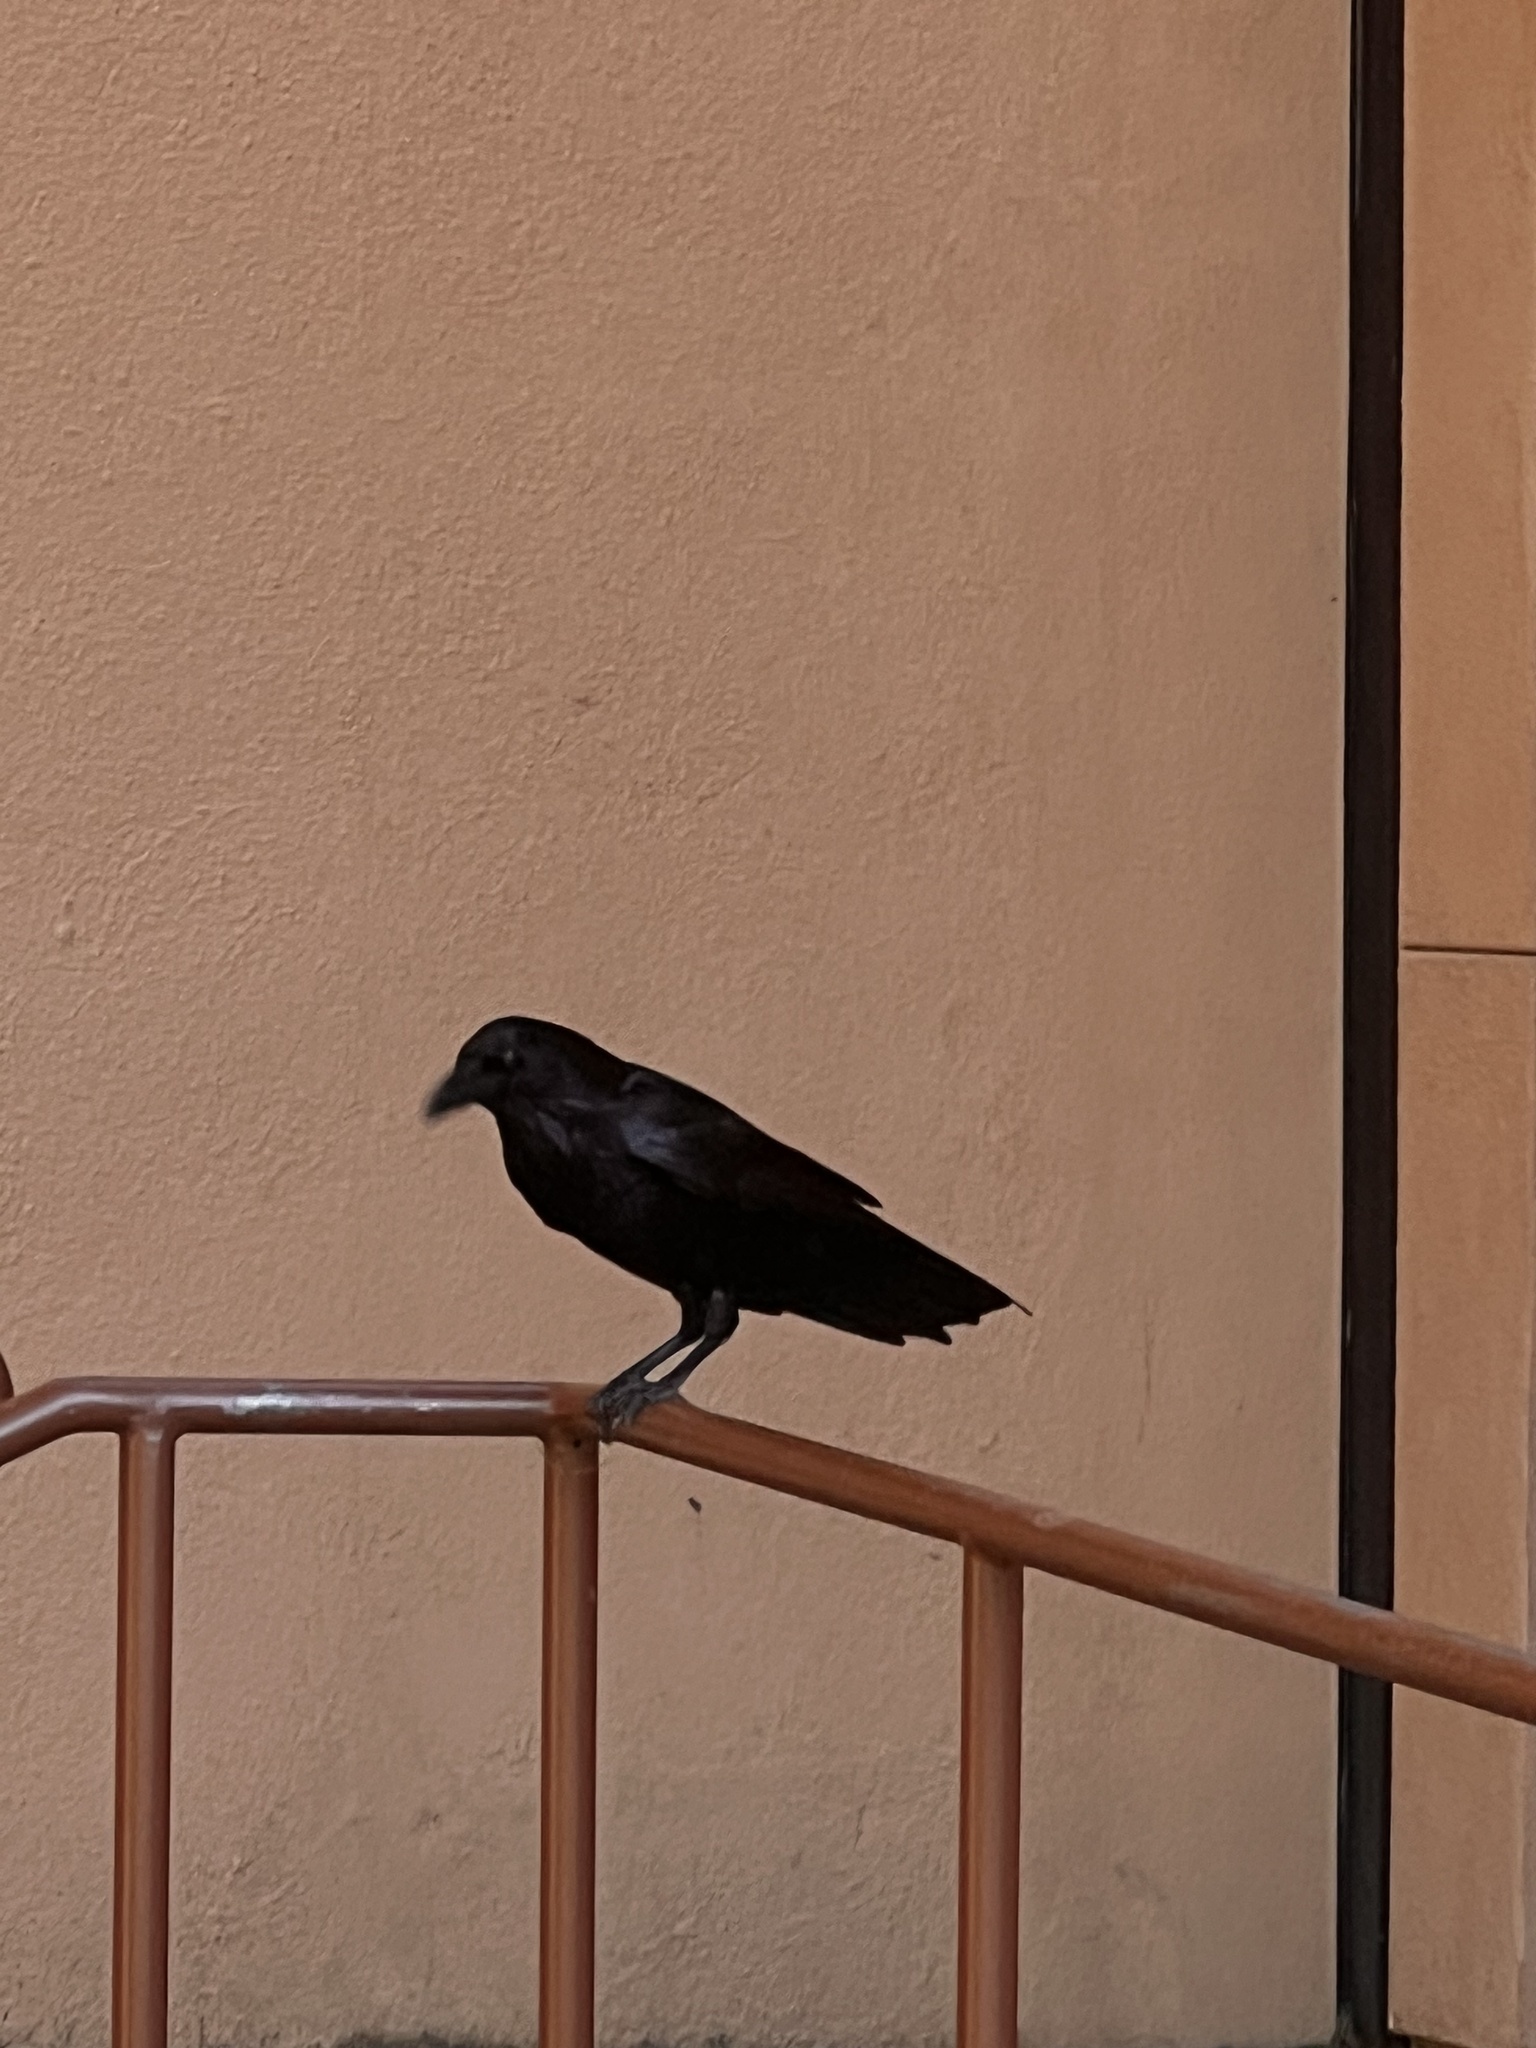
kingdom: Animalia
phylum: Chordata
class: Aves
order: Passeriformes
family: Corvidae
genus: Corvus
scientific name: Corvus corax
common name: Common raven
